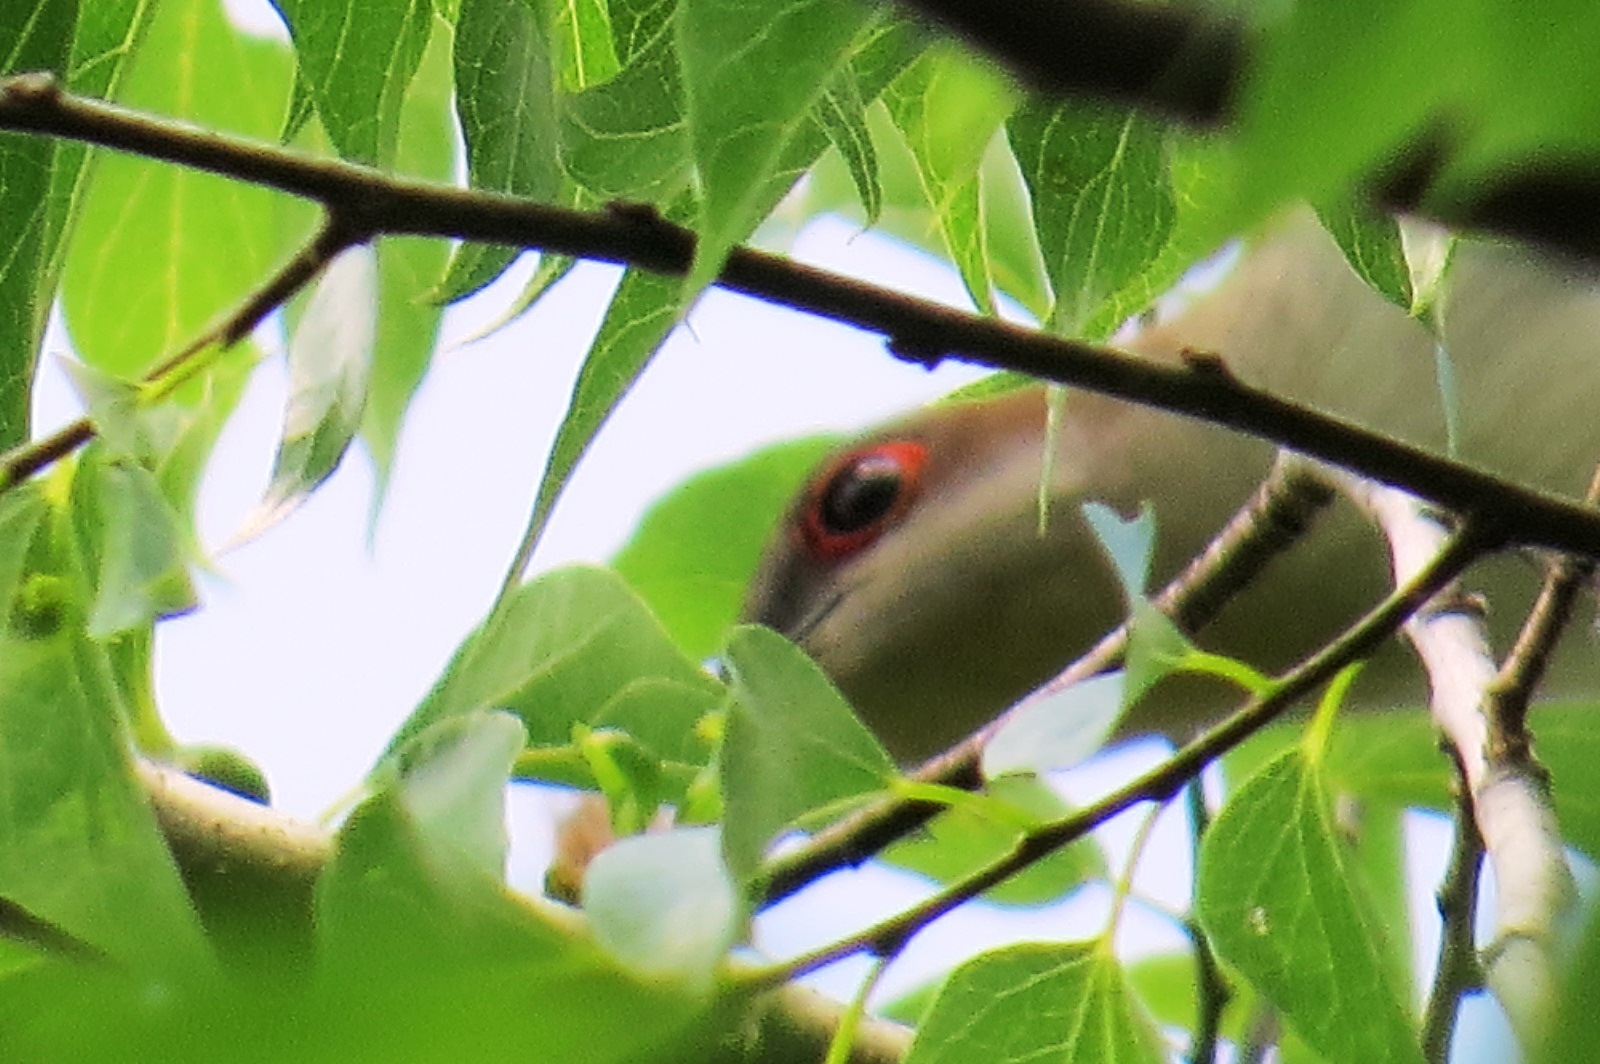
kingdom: Animalia
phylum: Chordata
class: Aves
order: Cuculiformes
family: Cuculidae
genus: Coccyzus
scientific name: Coccyzus erythropthalmus
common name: Black-billed cuckoo
